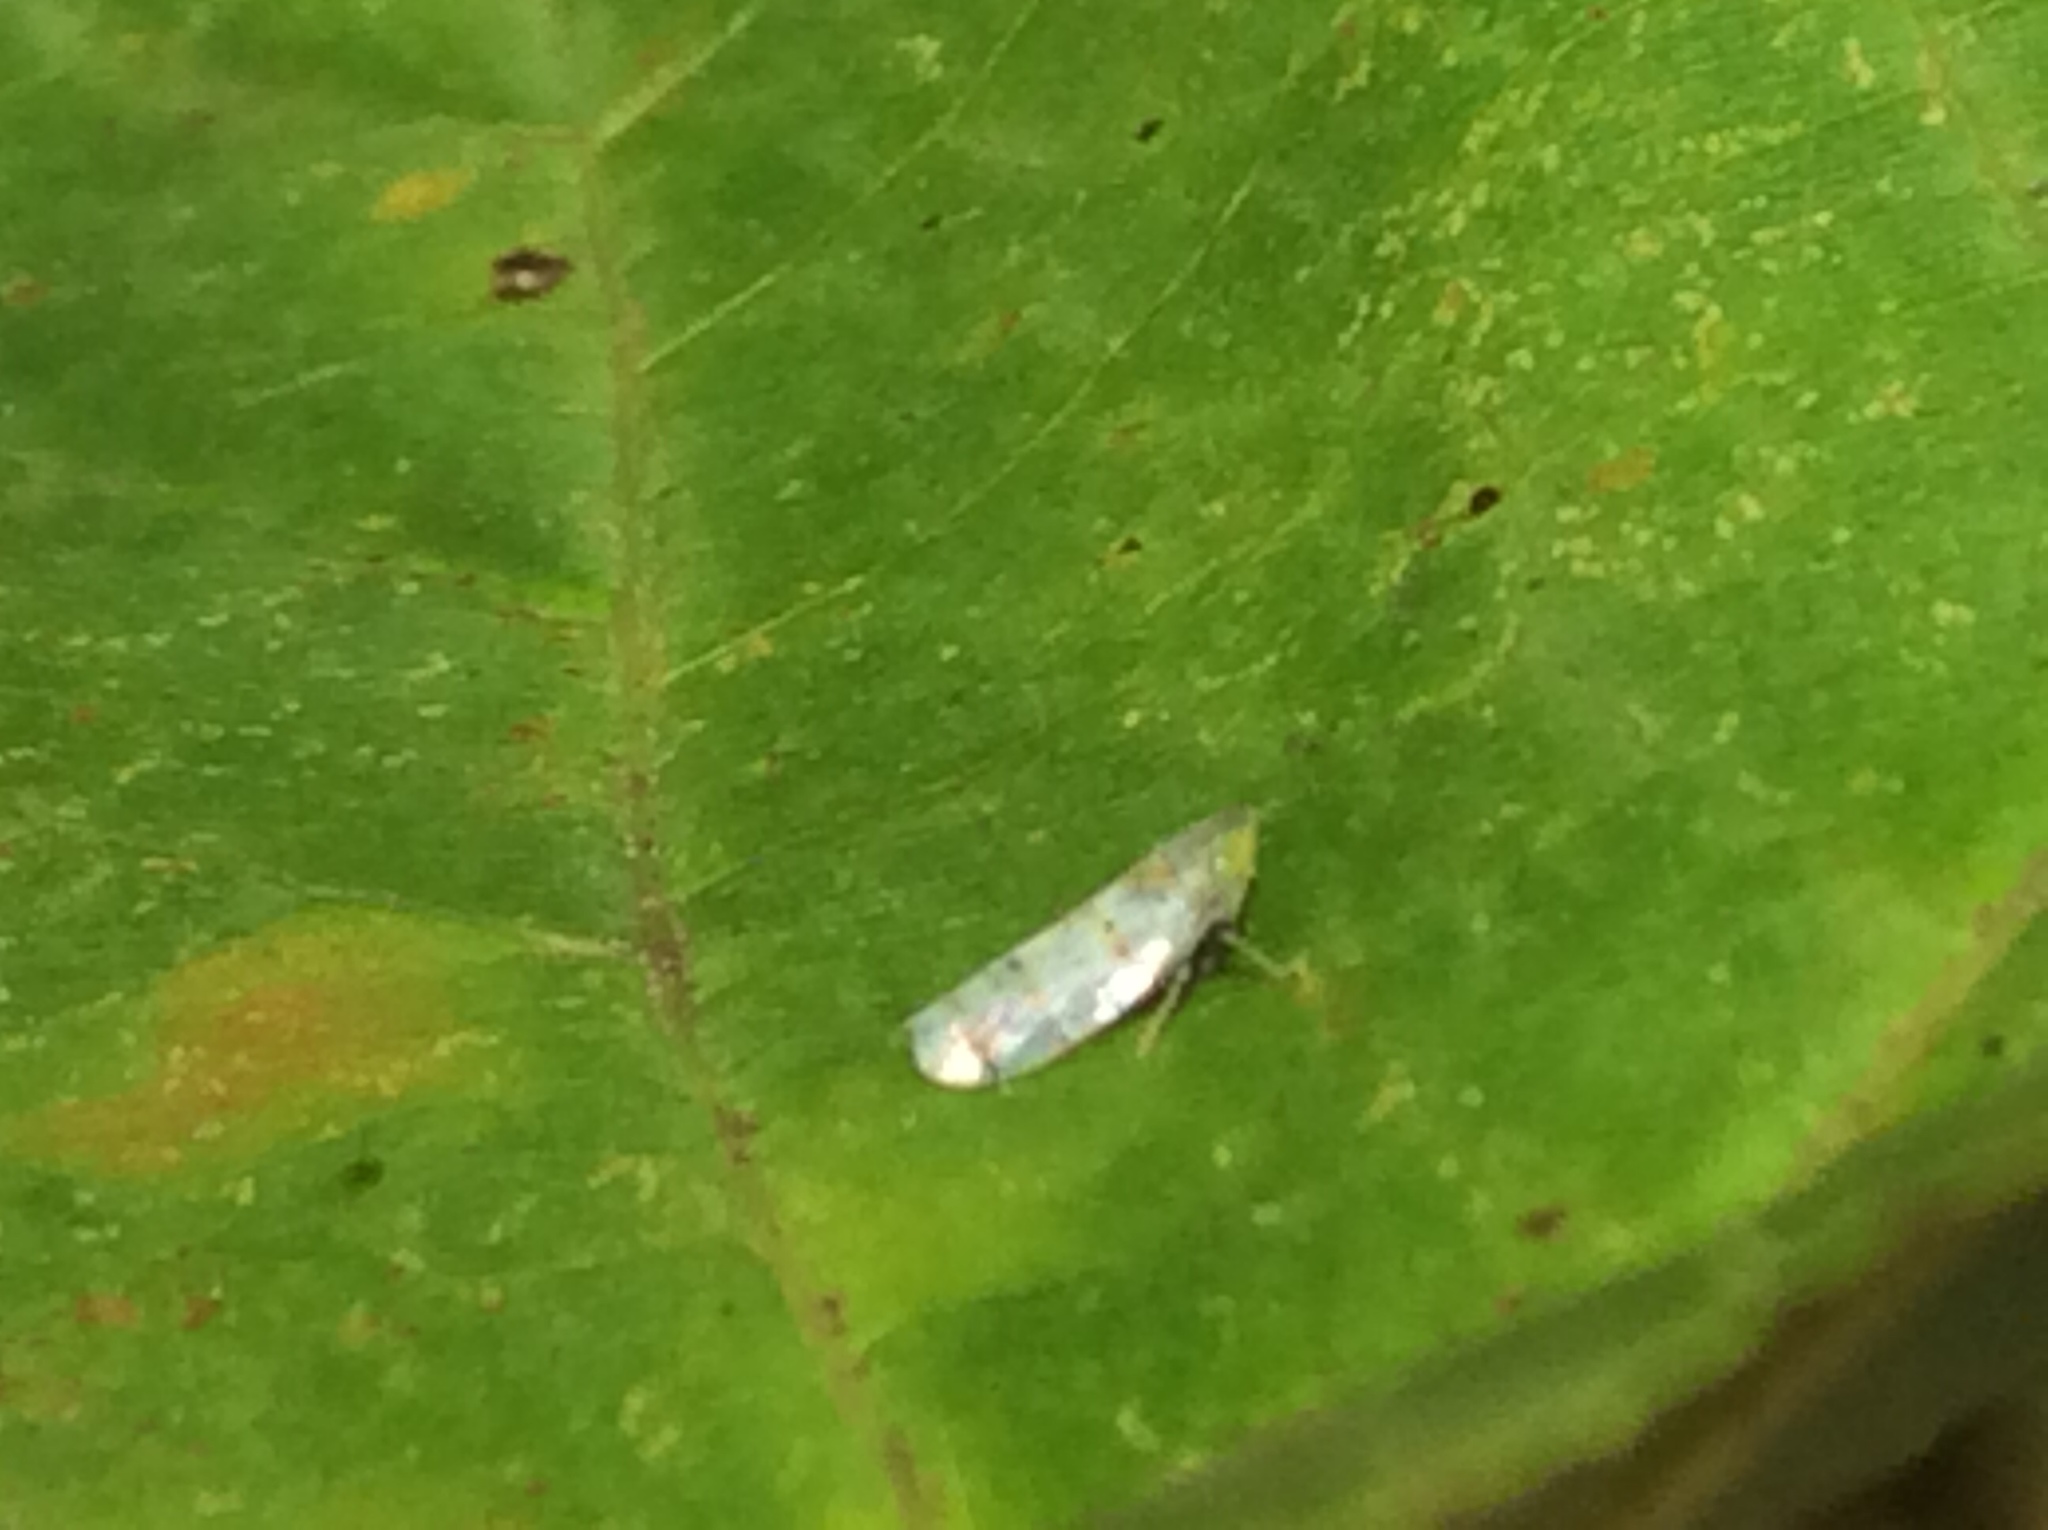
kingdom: Animalia
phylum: Arthropoda
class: Insecta
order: Hemiptera
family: Cicadellidae
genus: Japananus
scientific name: Japananus hyalinus
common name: The japanese maple leafhopper
